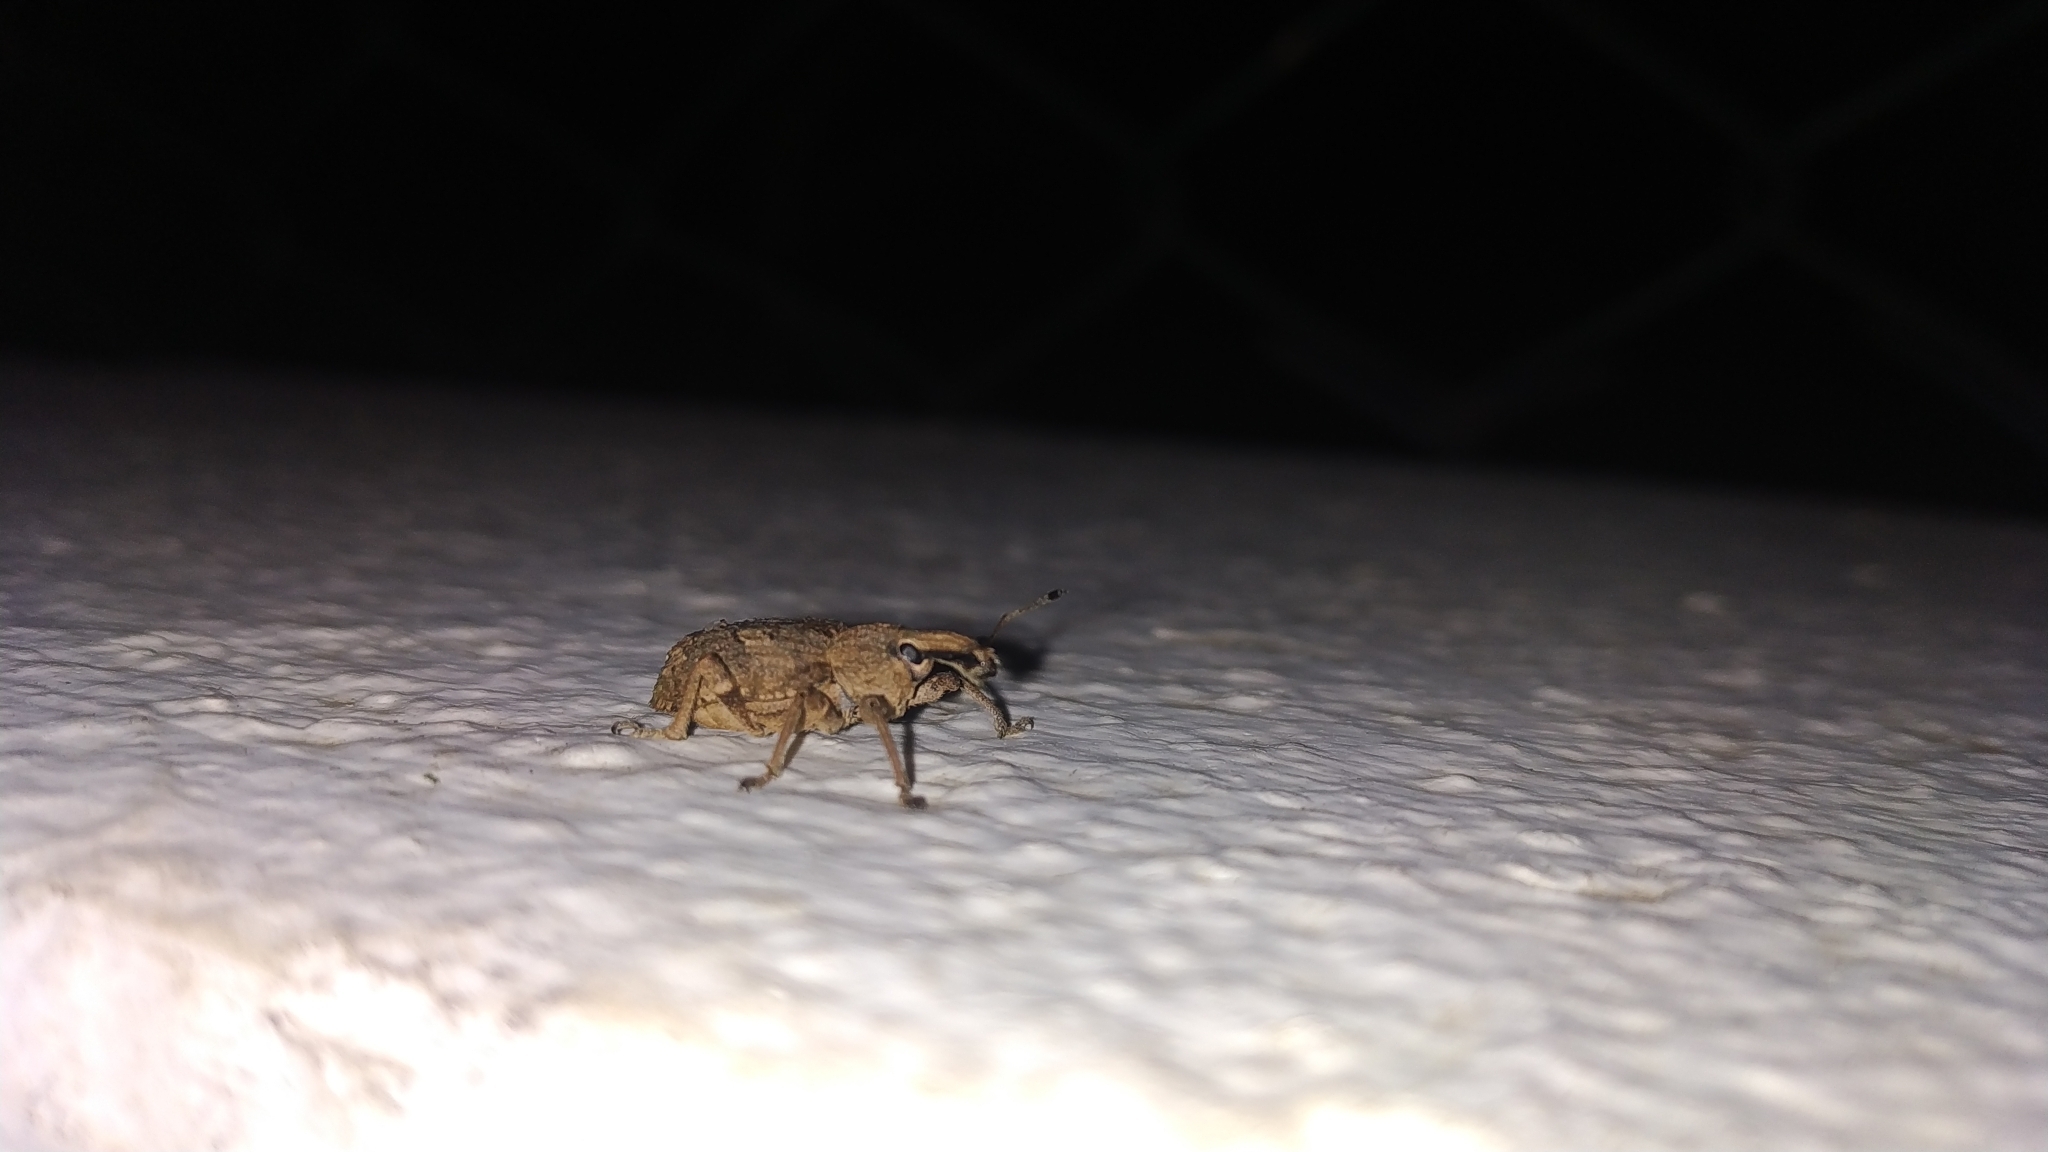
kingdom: Animalia
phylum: Arthropoda
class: Insecta
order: Coleoptera
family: Curculionidae
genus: Rhytideres
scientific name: Rhytideres plicatus
